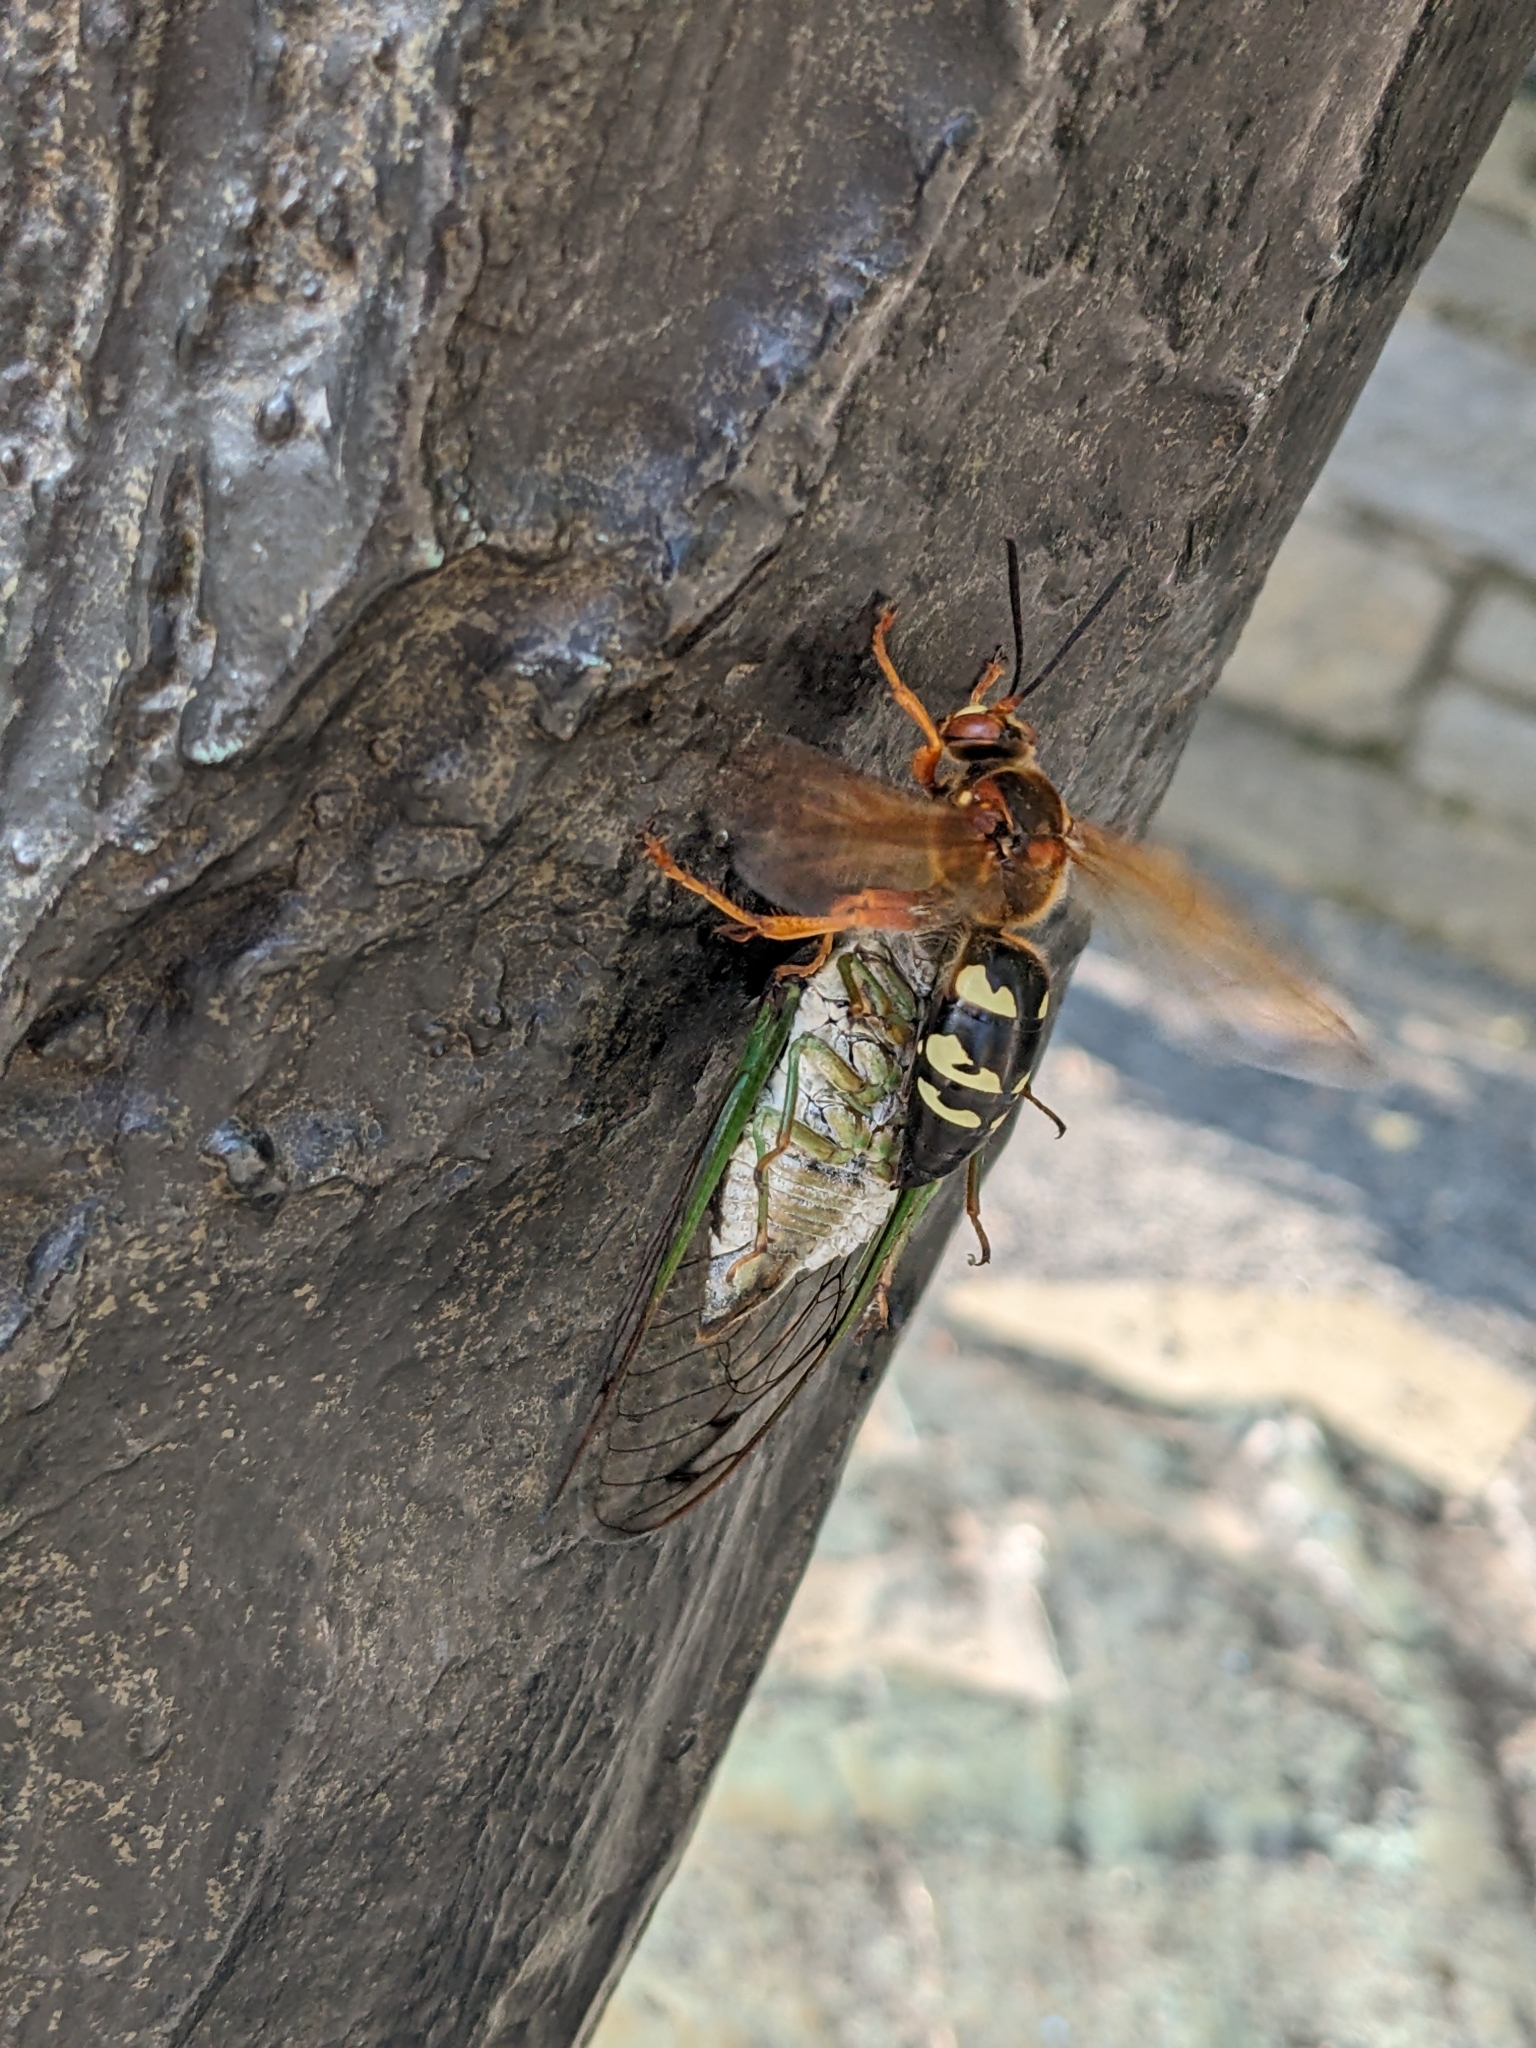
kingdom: Animalia
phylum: Arthropoda
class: Insecta
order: Hymenoptera
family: Crabronidae
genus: Sphecius
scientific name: Sphecius speciosus
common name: Cicada killer
